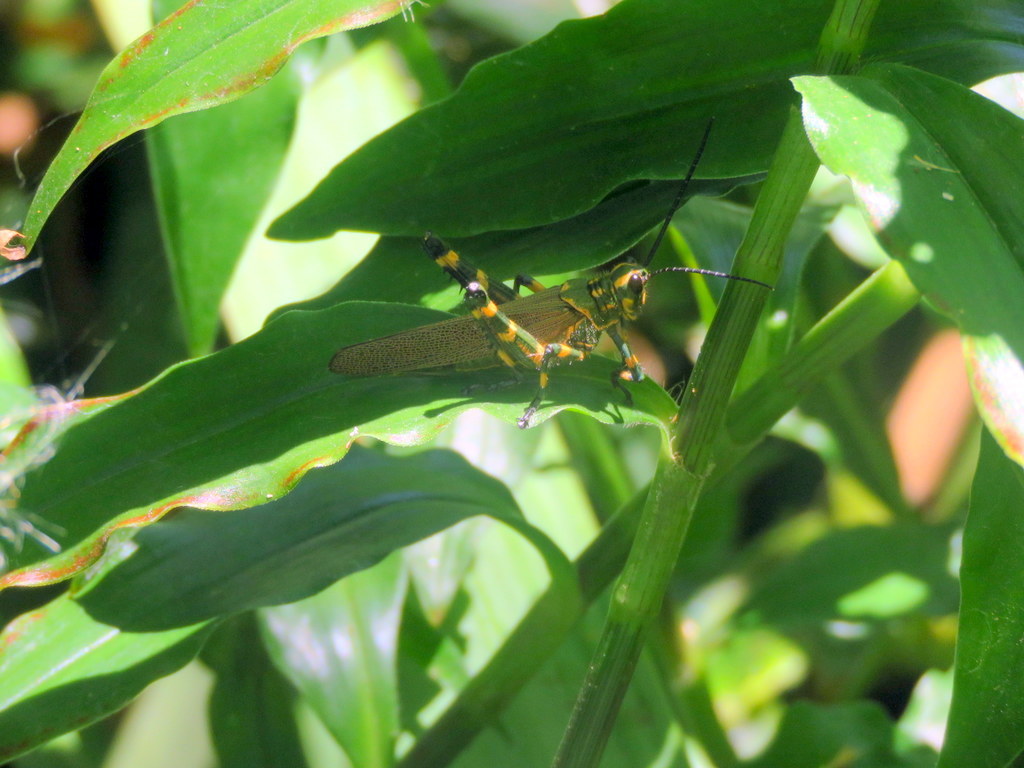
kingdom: Animalia
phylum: Arthropoda
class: Insecta
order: Orthoptera
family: Romaleidae
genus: Chromacris
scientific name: Chromacris speciosa
